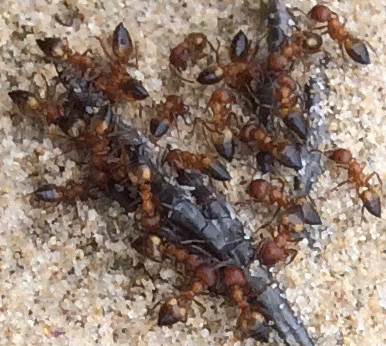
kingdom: Animalia
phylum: Arthropoda
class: Insecta
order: Hymenoptera
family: Formicidae
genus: Crematogaster
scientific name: Crematogaster castanea
